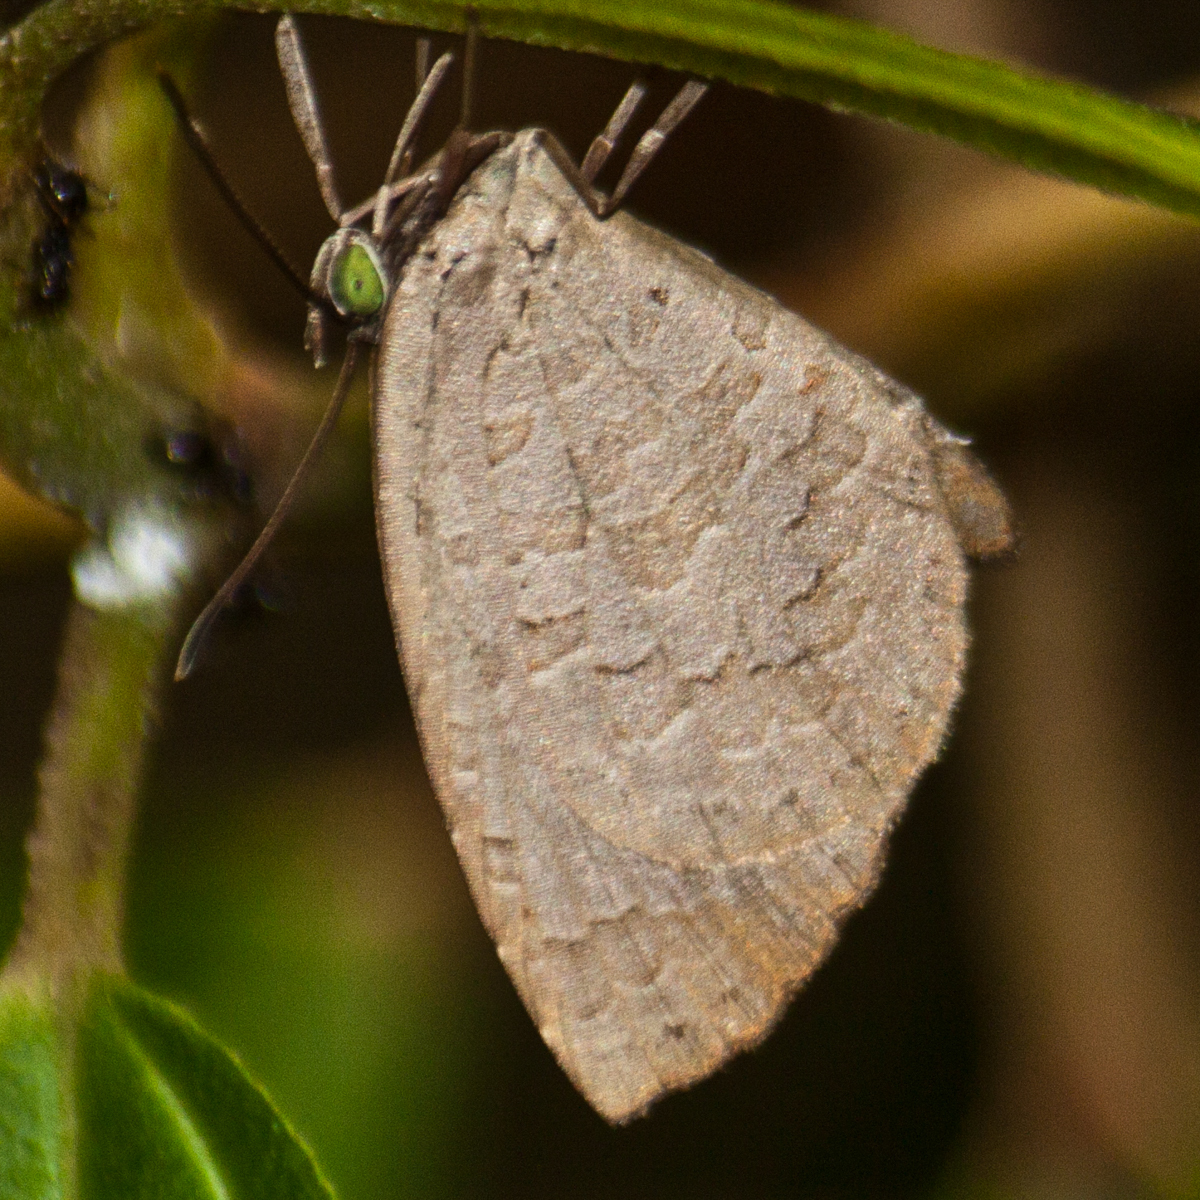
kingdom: Animalia
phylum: Arthropoda
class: Insecta
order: Lepidoptera
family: Lycaenidae
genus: Miletus
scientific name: Miletus chinensis
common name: Common brownie
